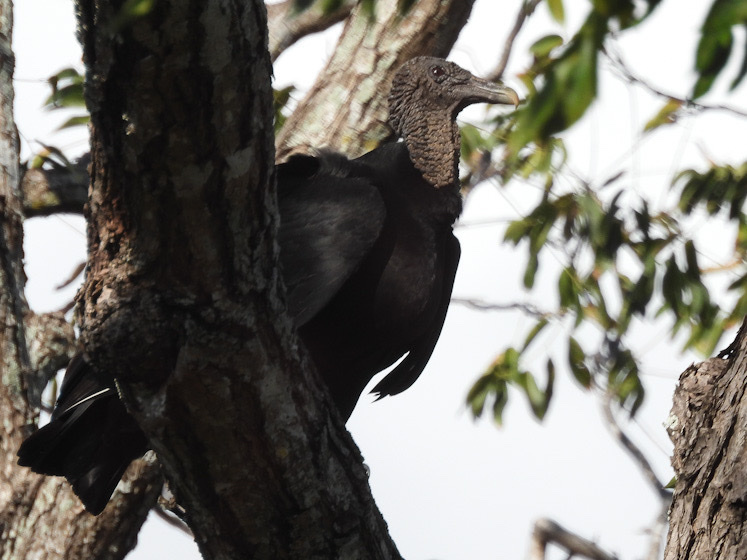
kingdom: Animalia
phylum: Chordata
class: Aves
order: Accipitriformes
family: Cathartidae
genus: Coragyps
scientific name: Coragyps atratus
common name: Black vulture
